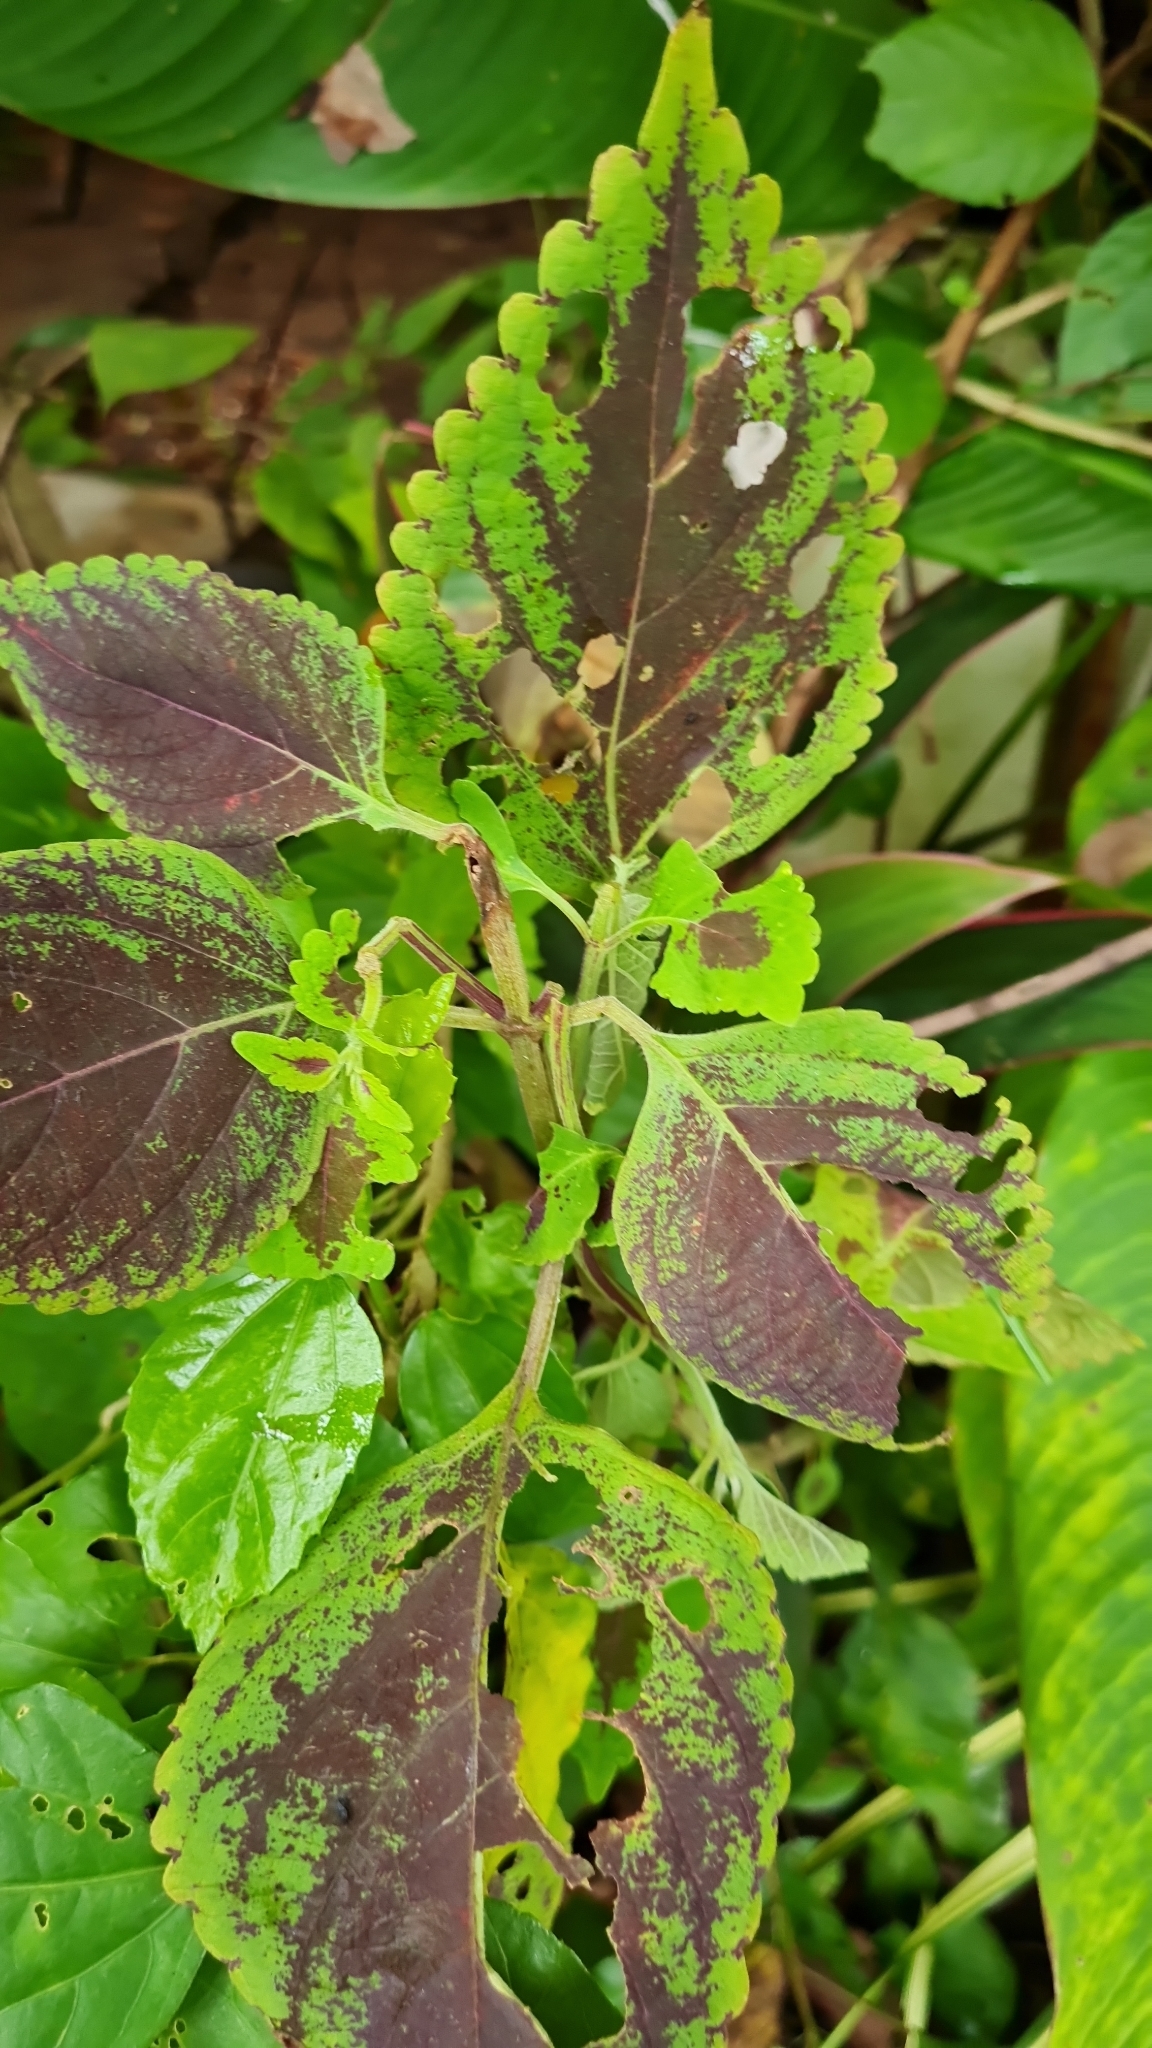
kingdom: Plantae
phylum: Tracheophyta
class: Magnoliopsida
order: Lamiales
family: Lamiaceae
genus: Coleus
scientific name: Coleus scutellarioides
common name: Coleus
